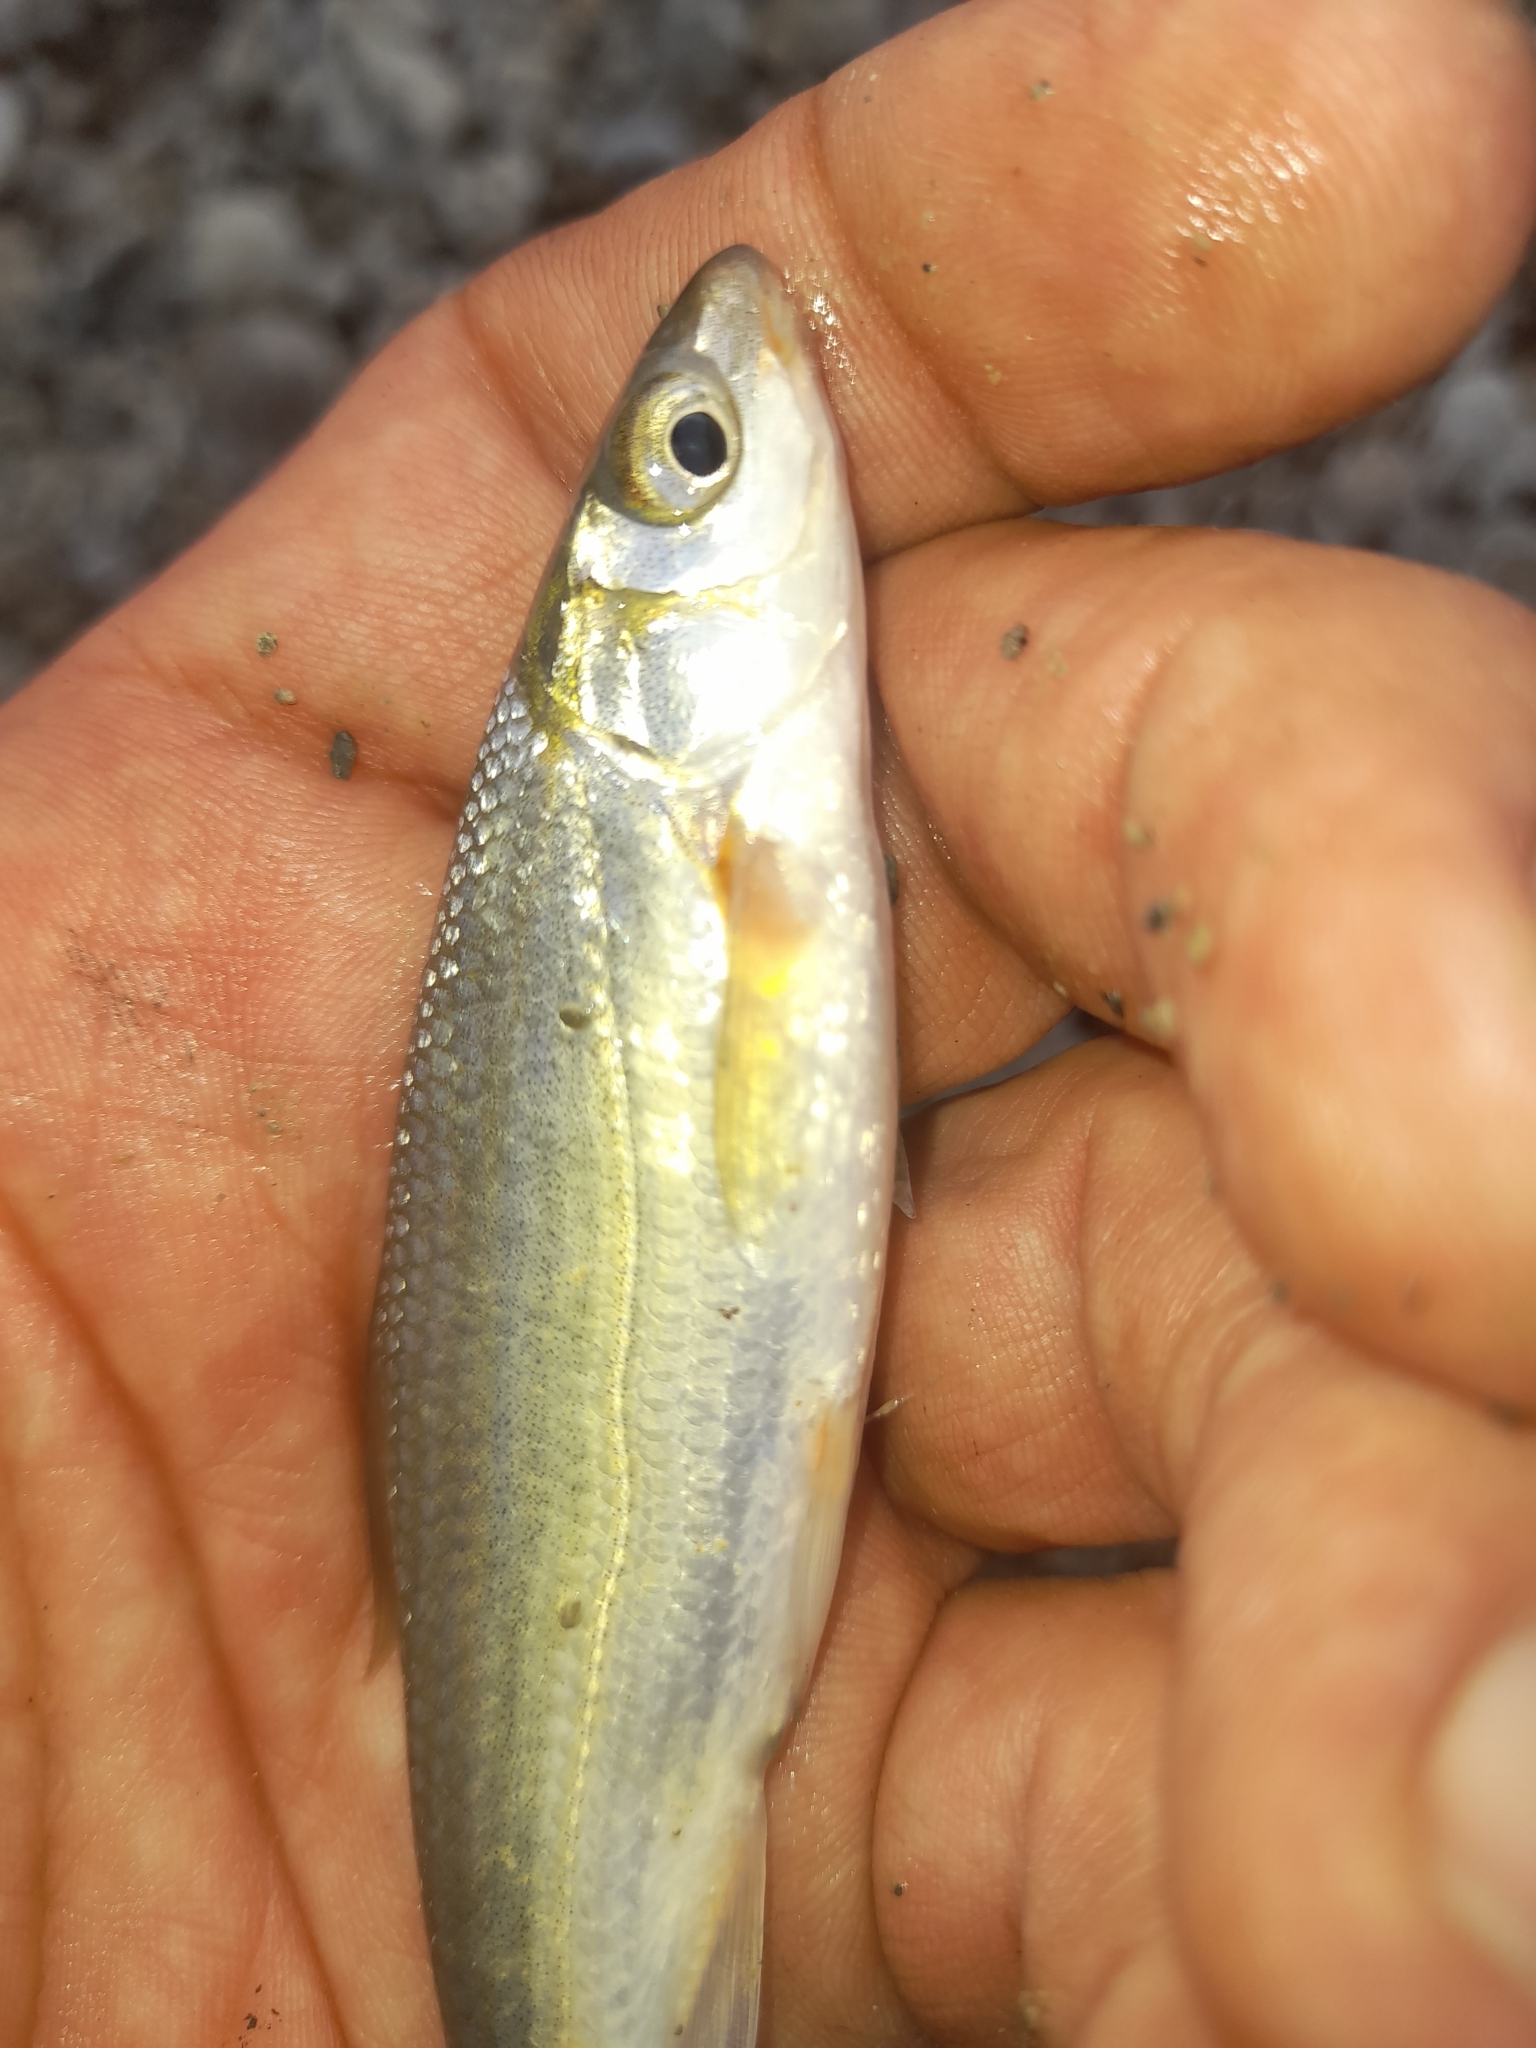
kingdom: Animalia
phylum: Chordata
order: Cypriniformes
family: Cyprinidae
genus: Protochondrostoma
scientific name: Protochondrostoma genei
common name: South european nase
